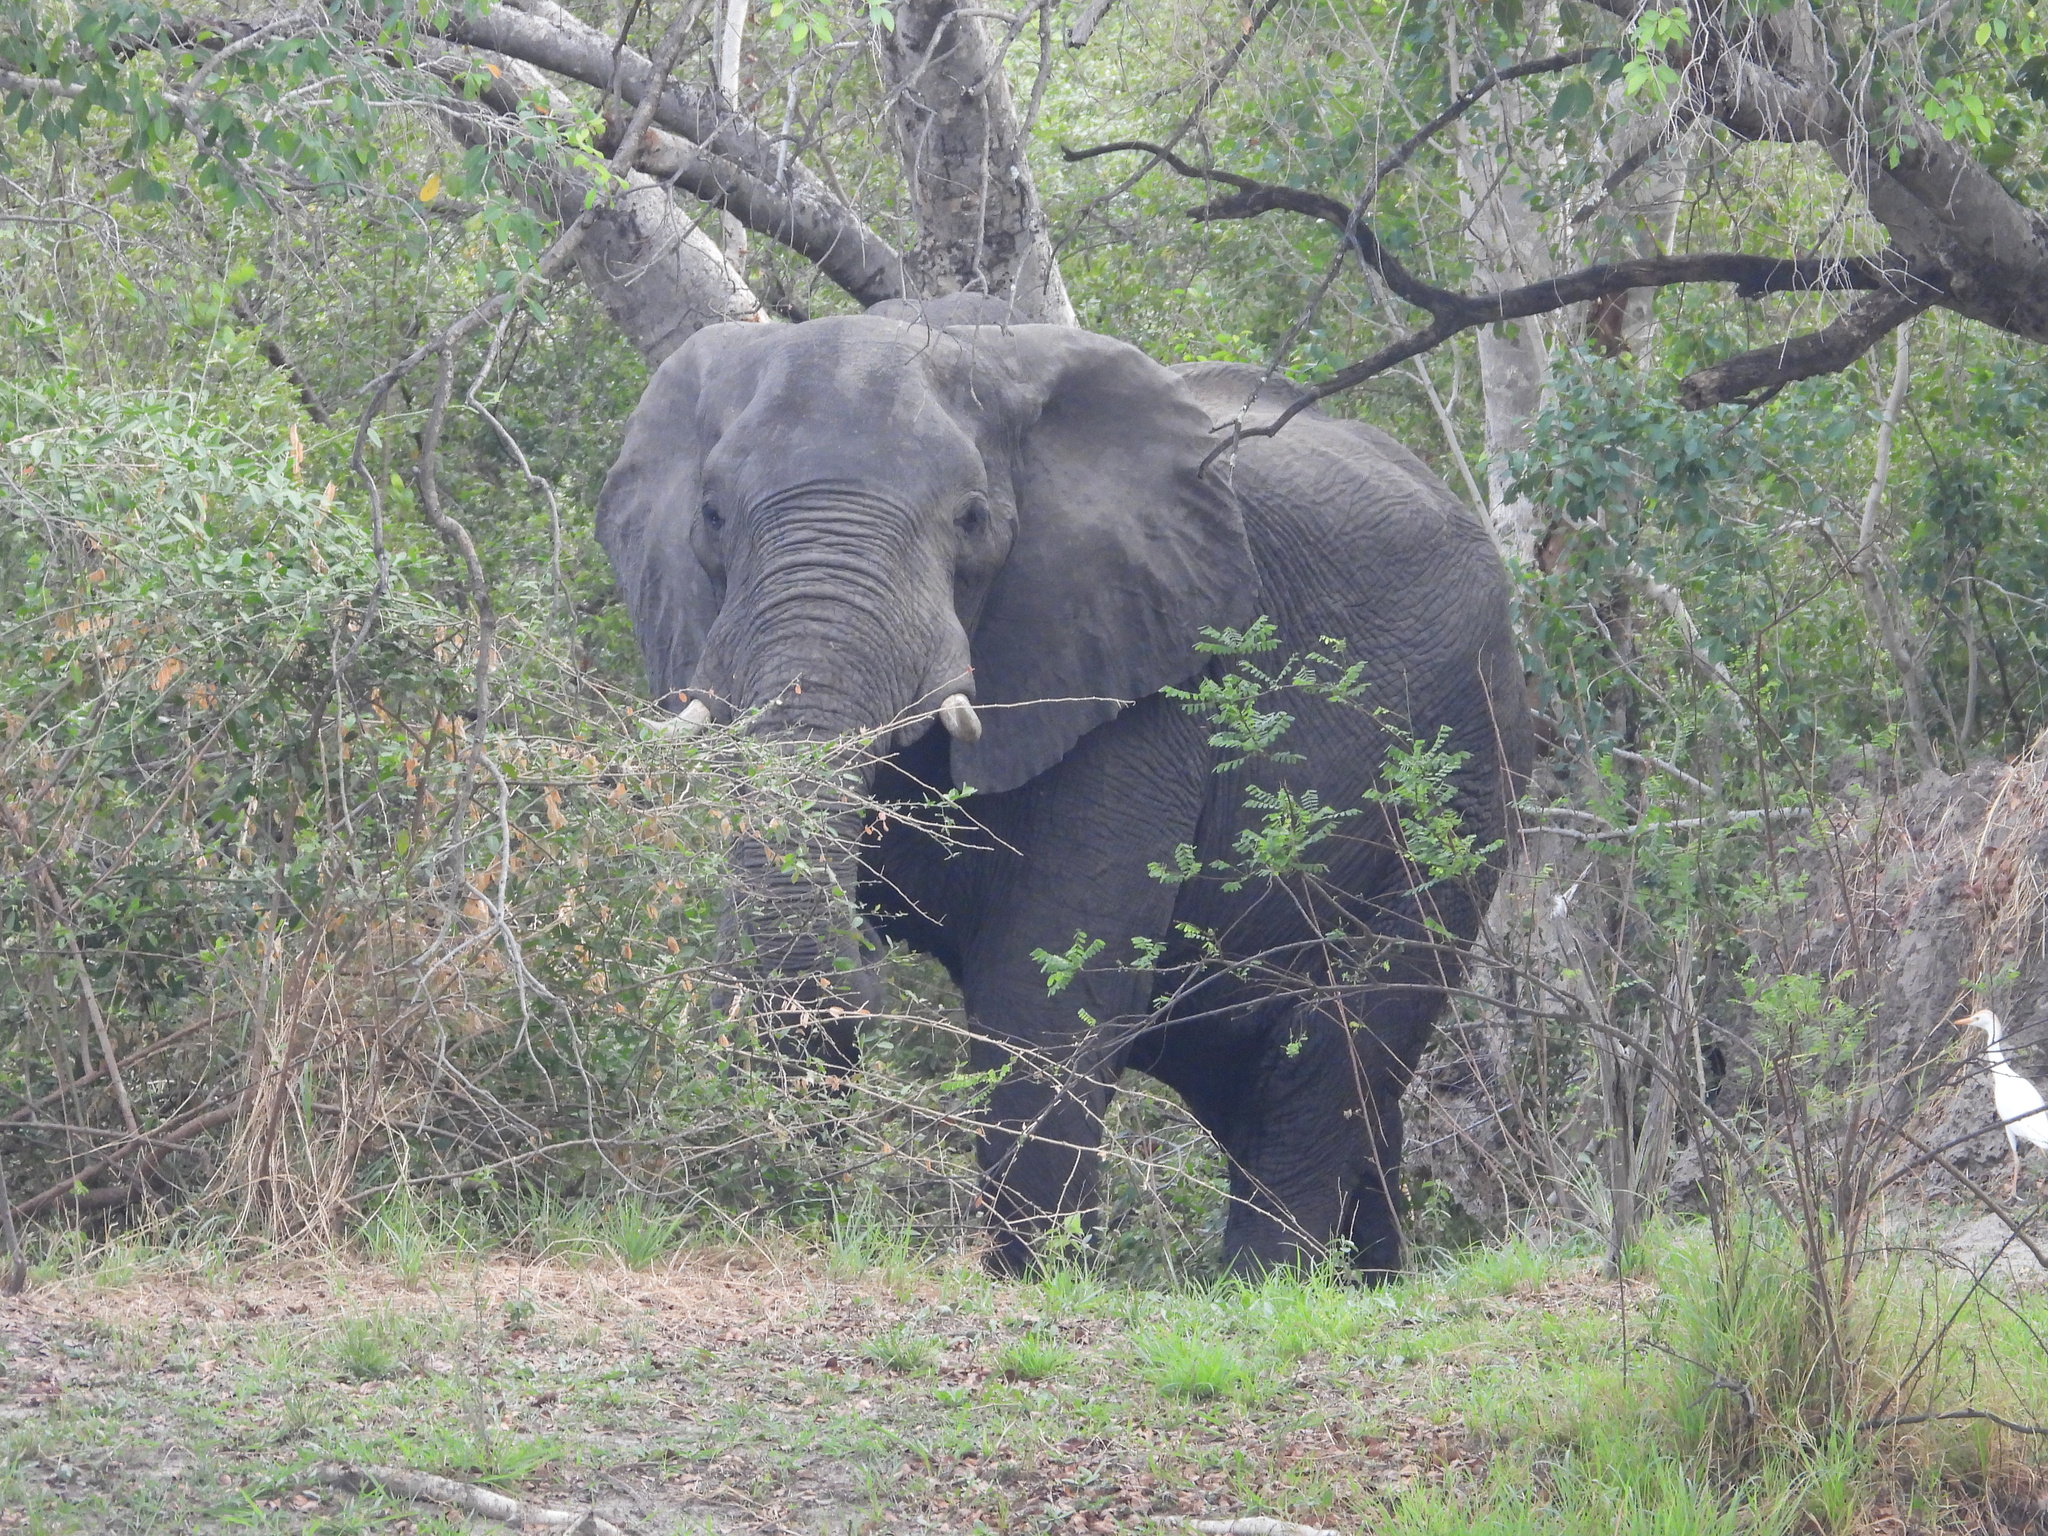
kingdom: Animalia
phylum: Chordata
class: Mammalia
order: Proboscidea
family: Elephantidae
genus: Loxodonta
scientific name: Loxodonta africana
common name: African elephant
